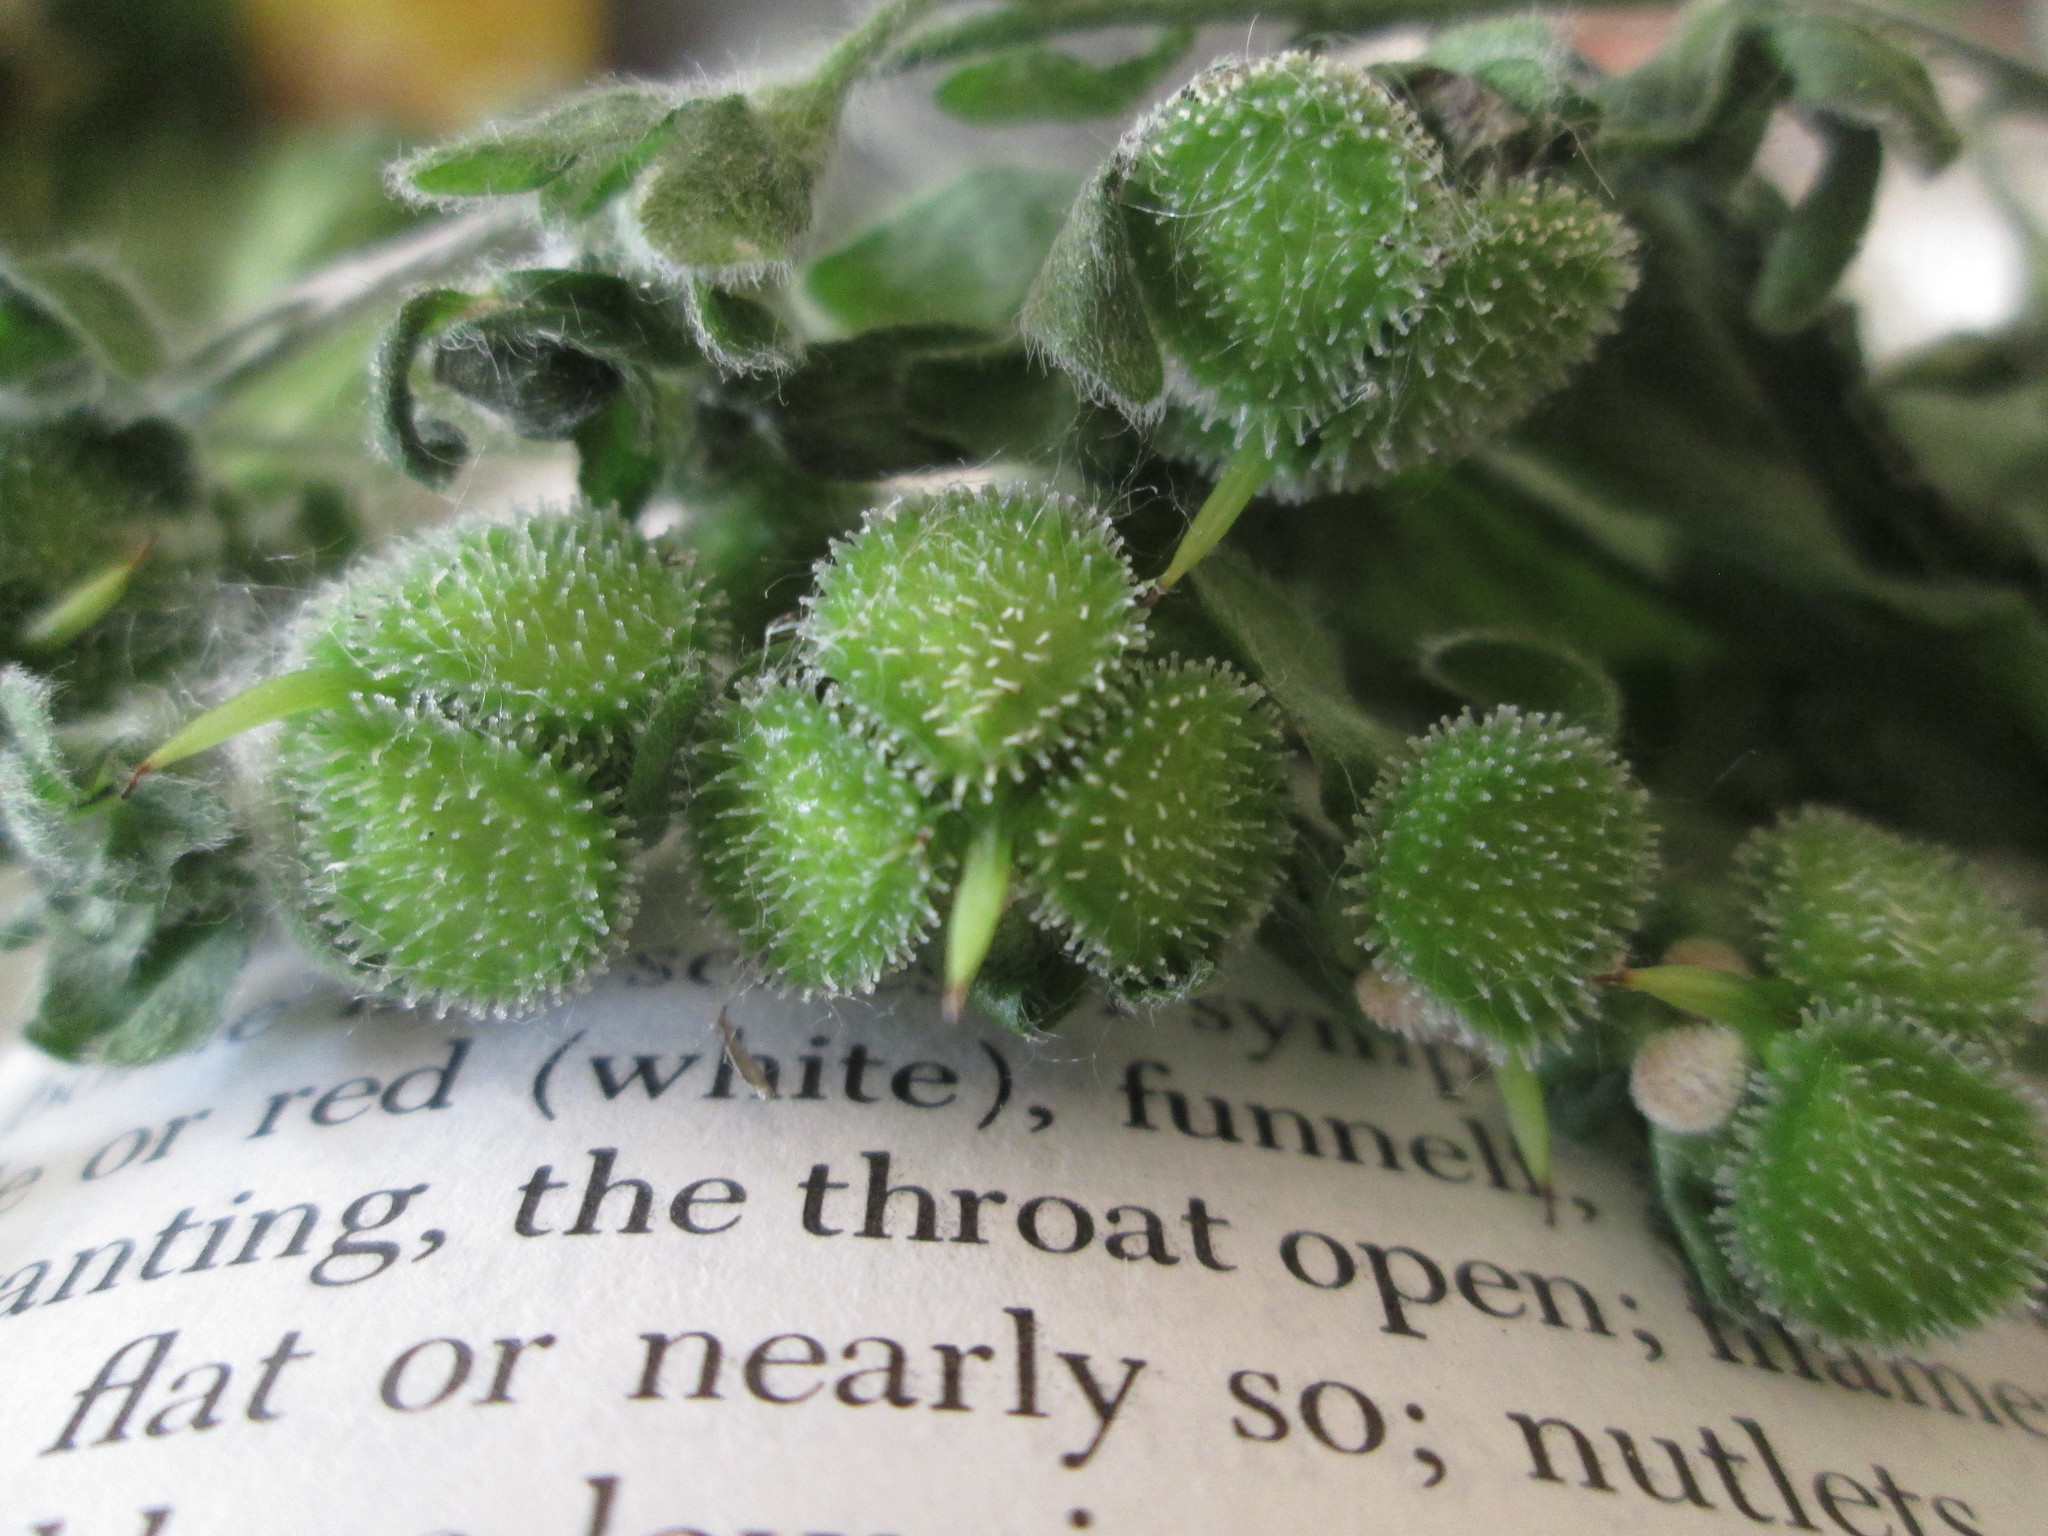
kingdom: Plantae
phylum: Tracheophyta
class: Magnoliopsida
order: Boraginales
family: Boraginaceae
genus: Cynoglossum
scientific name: Cynoglossum officinale
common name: Hound's-tongue
